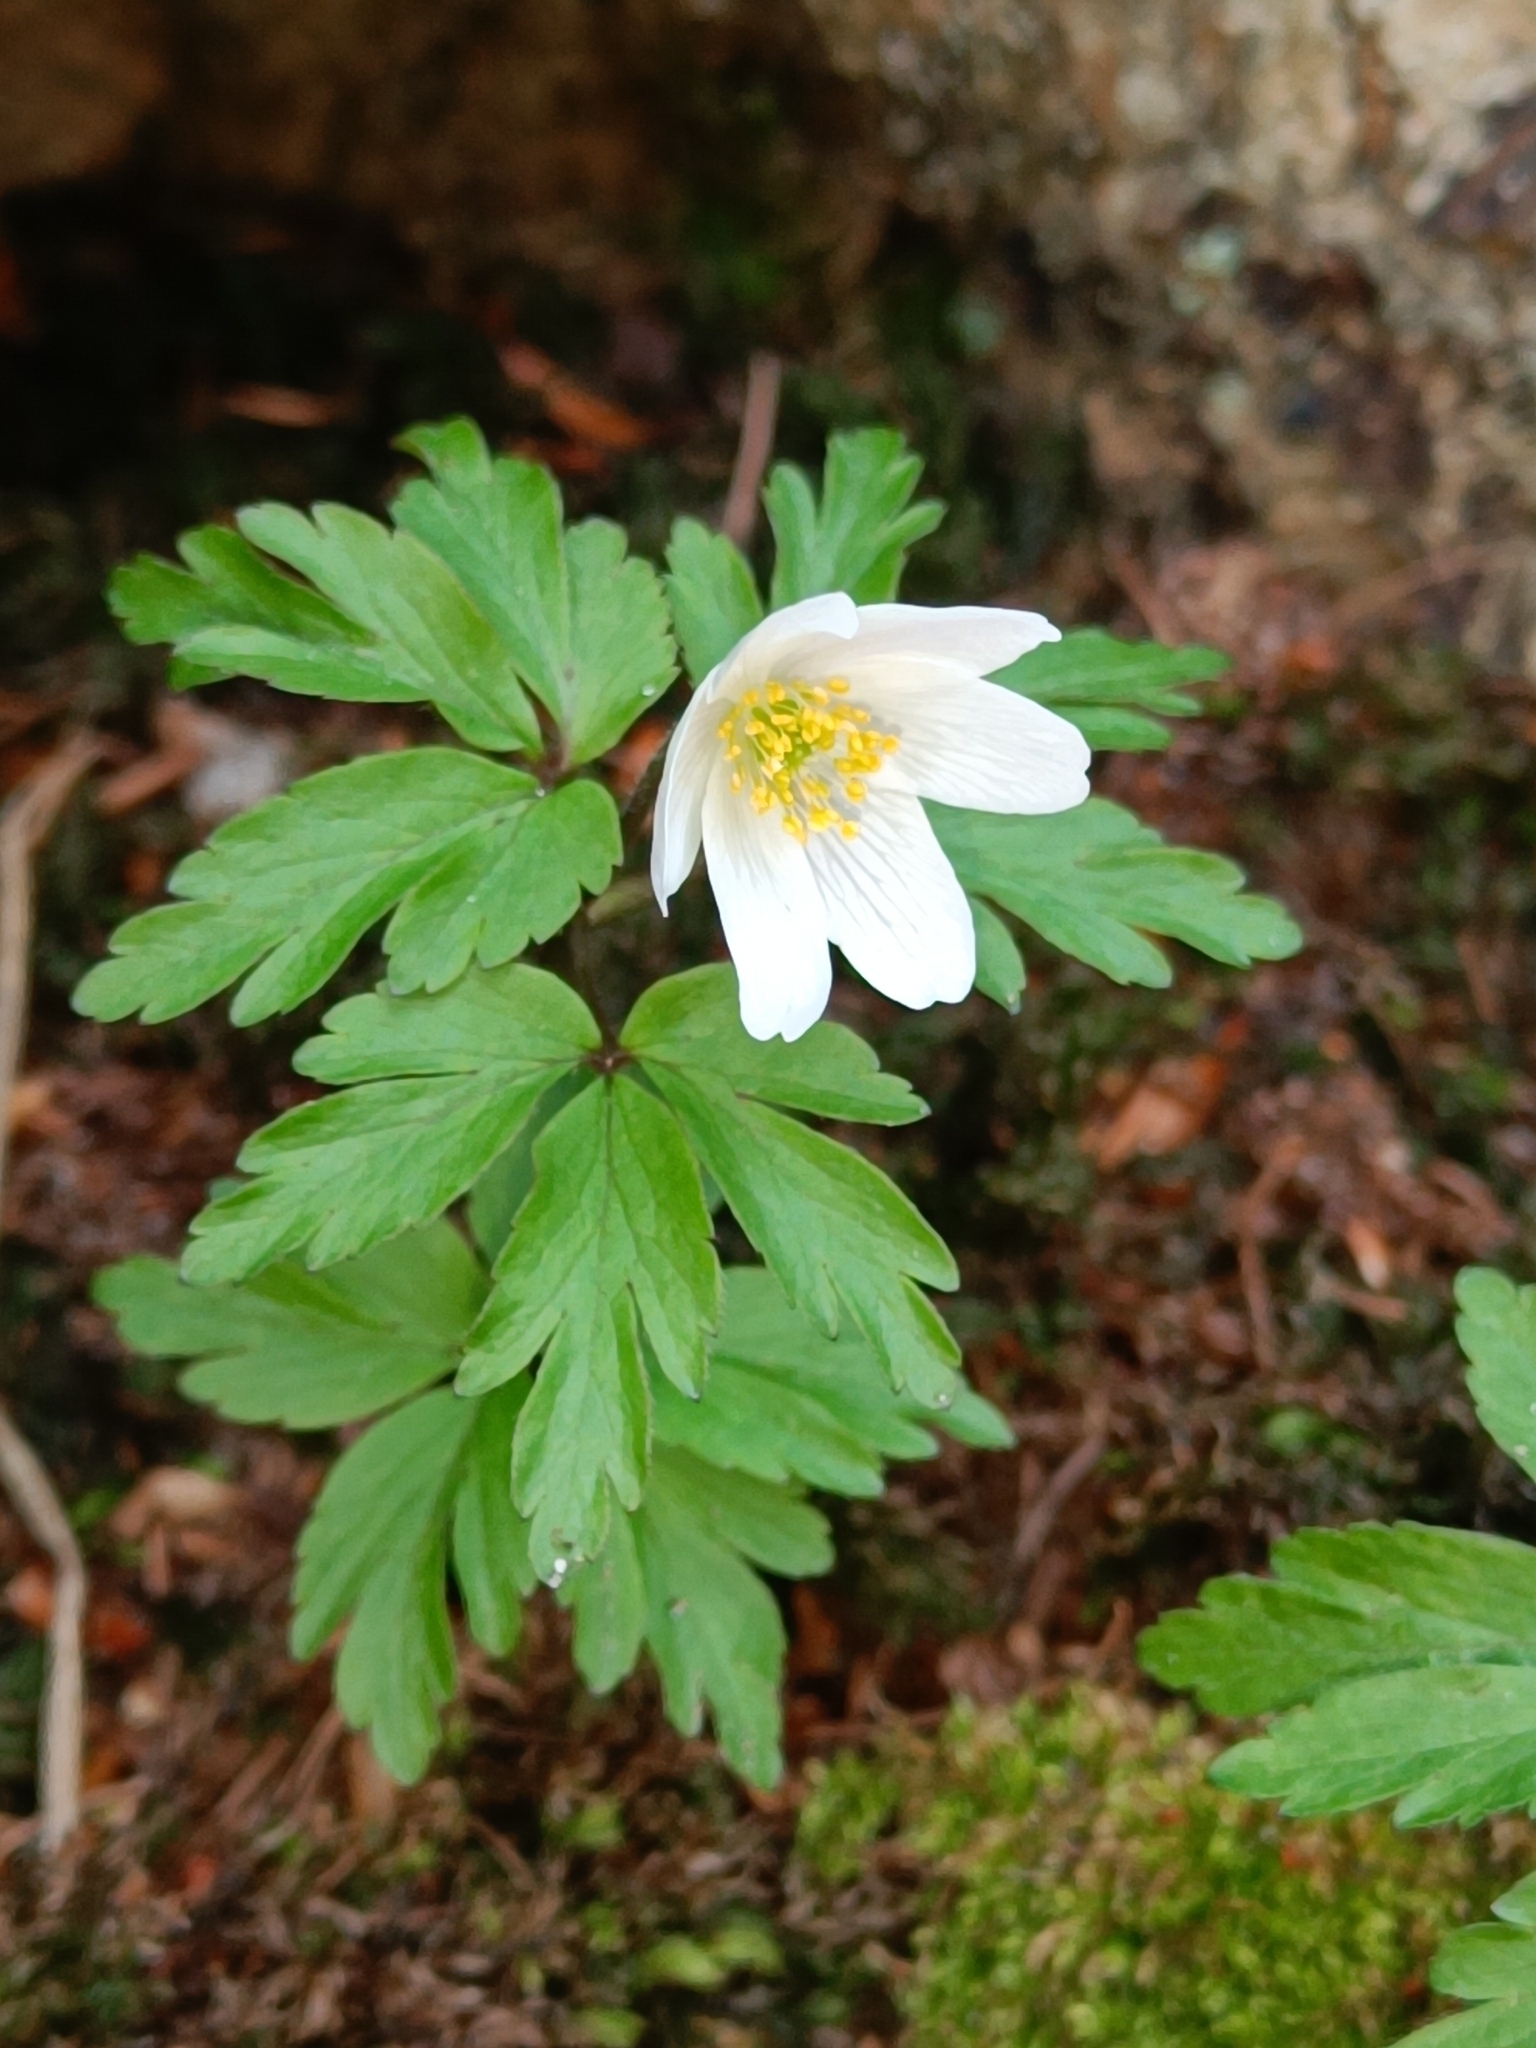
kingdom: Plantae
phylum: Tracheophyta
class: Magnoliopsida
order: Ranunculales
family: Ranunculaceae
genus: Anemone
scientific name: Anemone nemorosa
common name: Wood anemone
